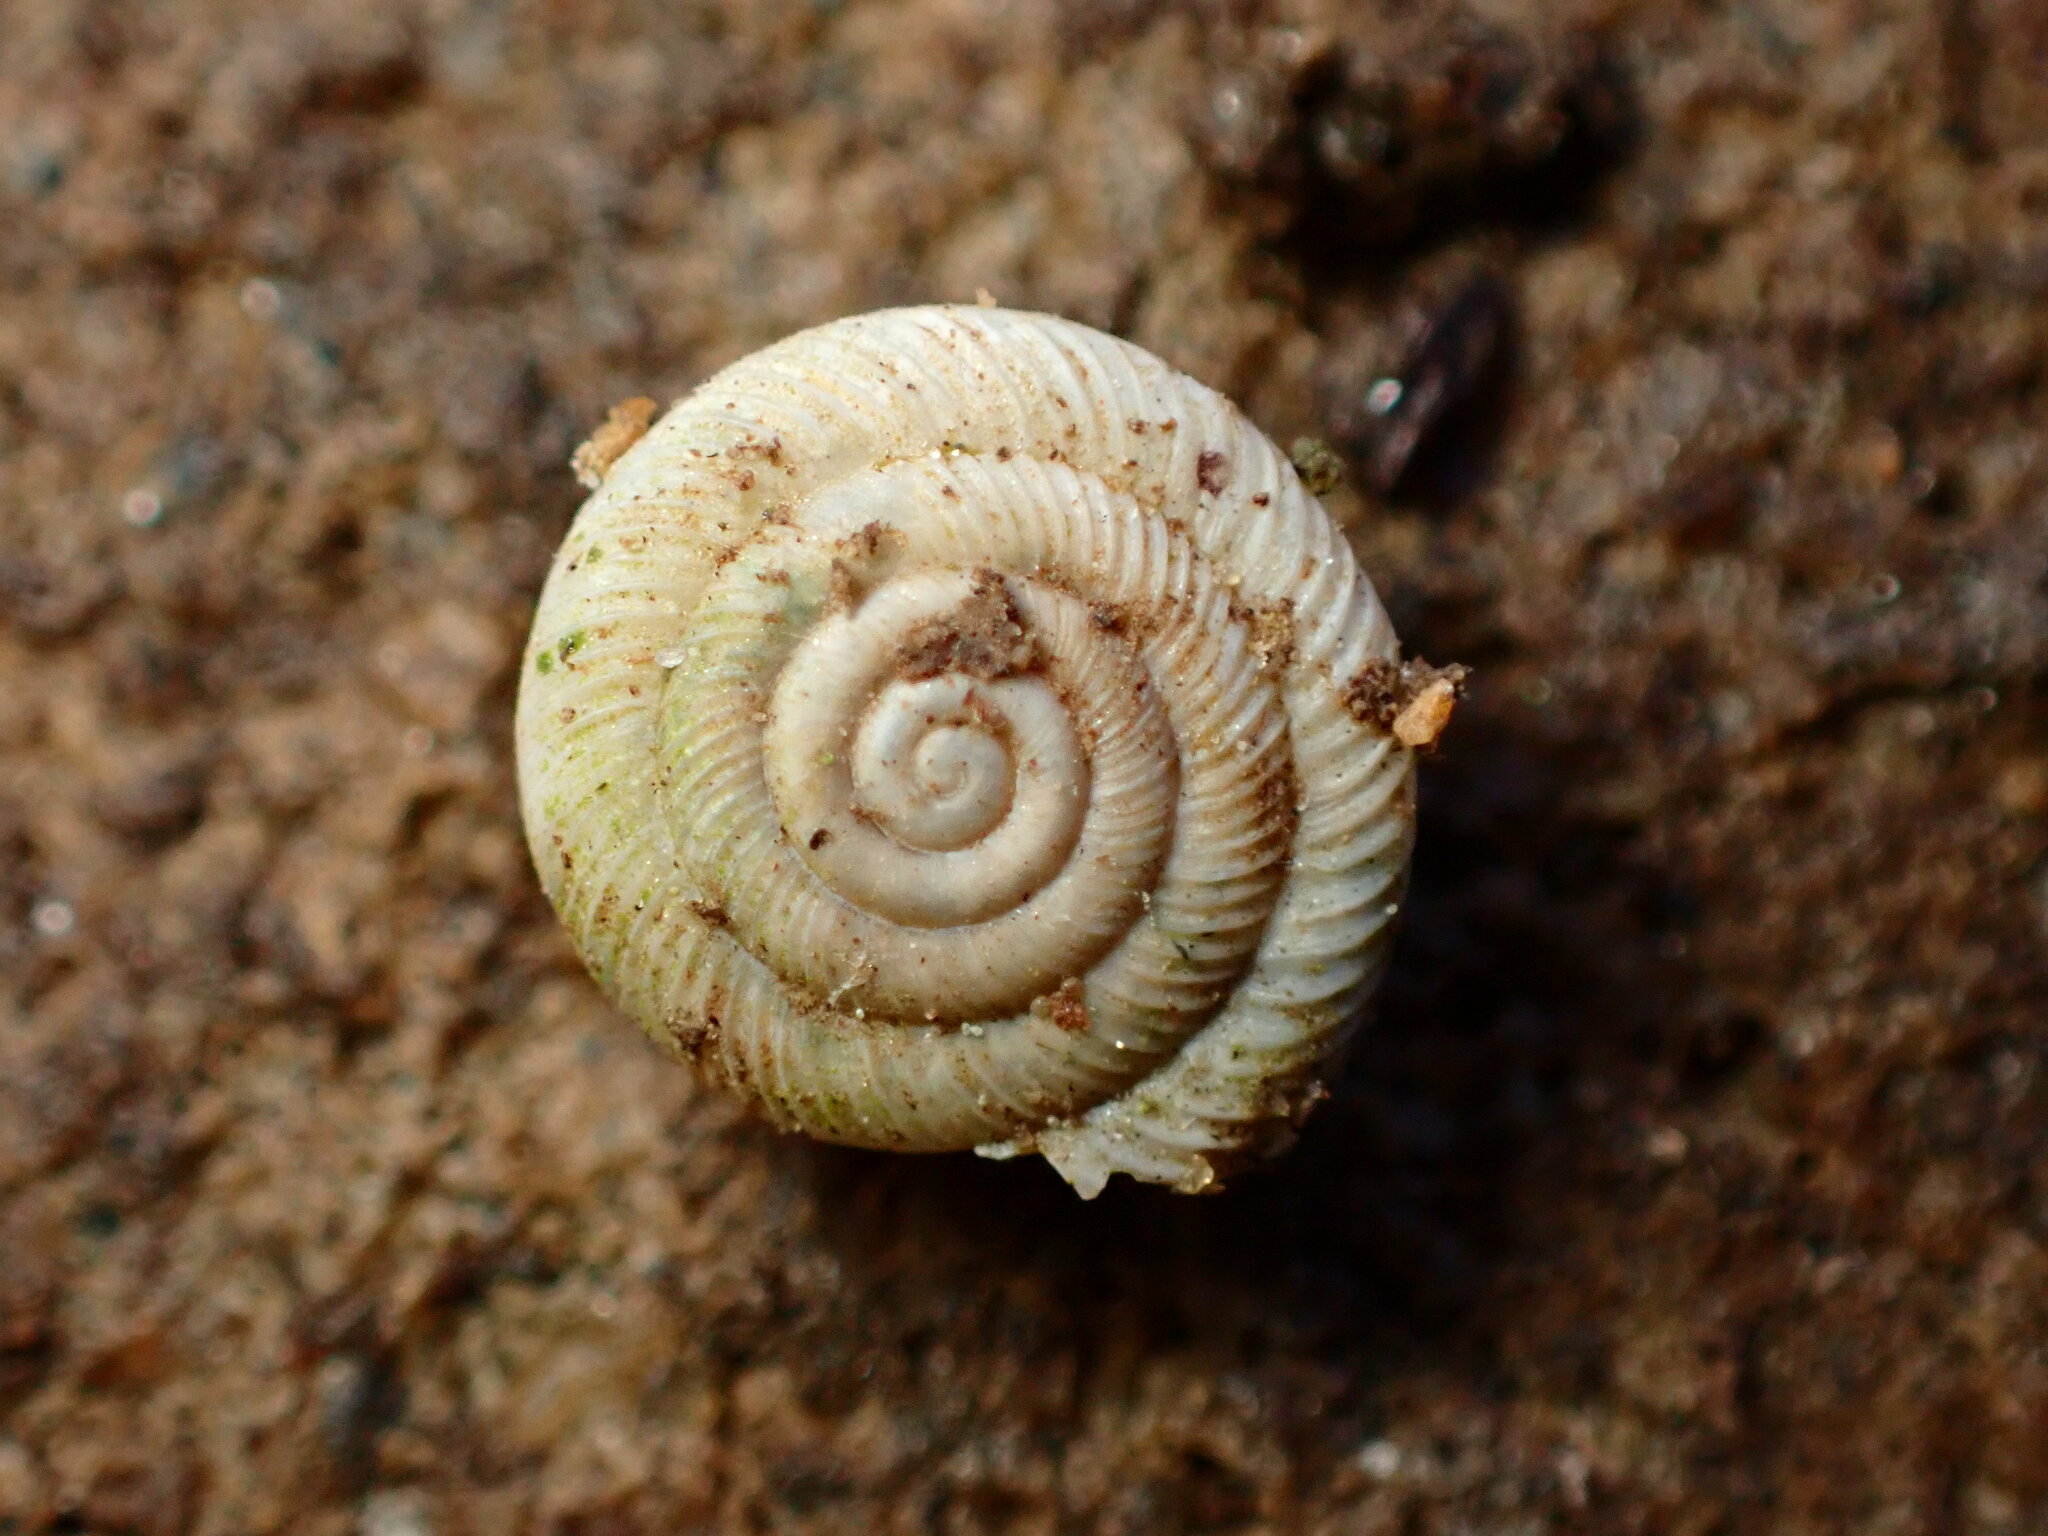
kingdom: Animalia
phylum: Mollusca
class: Gastropoda
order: Stylommatophora
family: Polygyridae
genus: Polygyra
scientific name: Polygyra cereolus
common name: Southern flatcone snail
